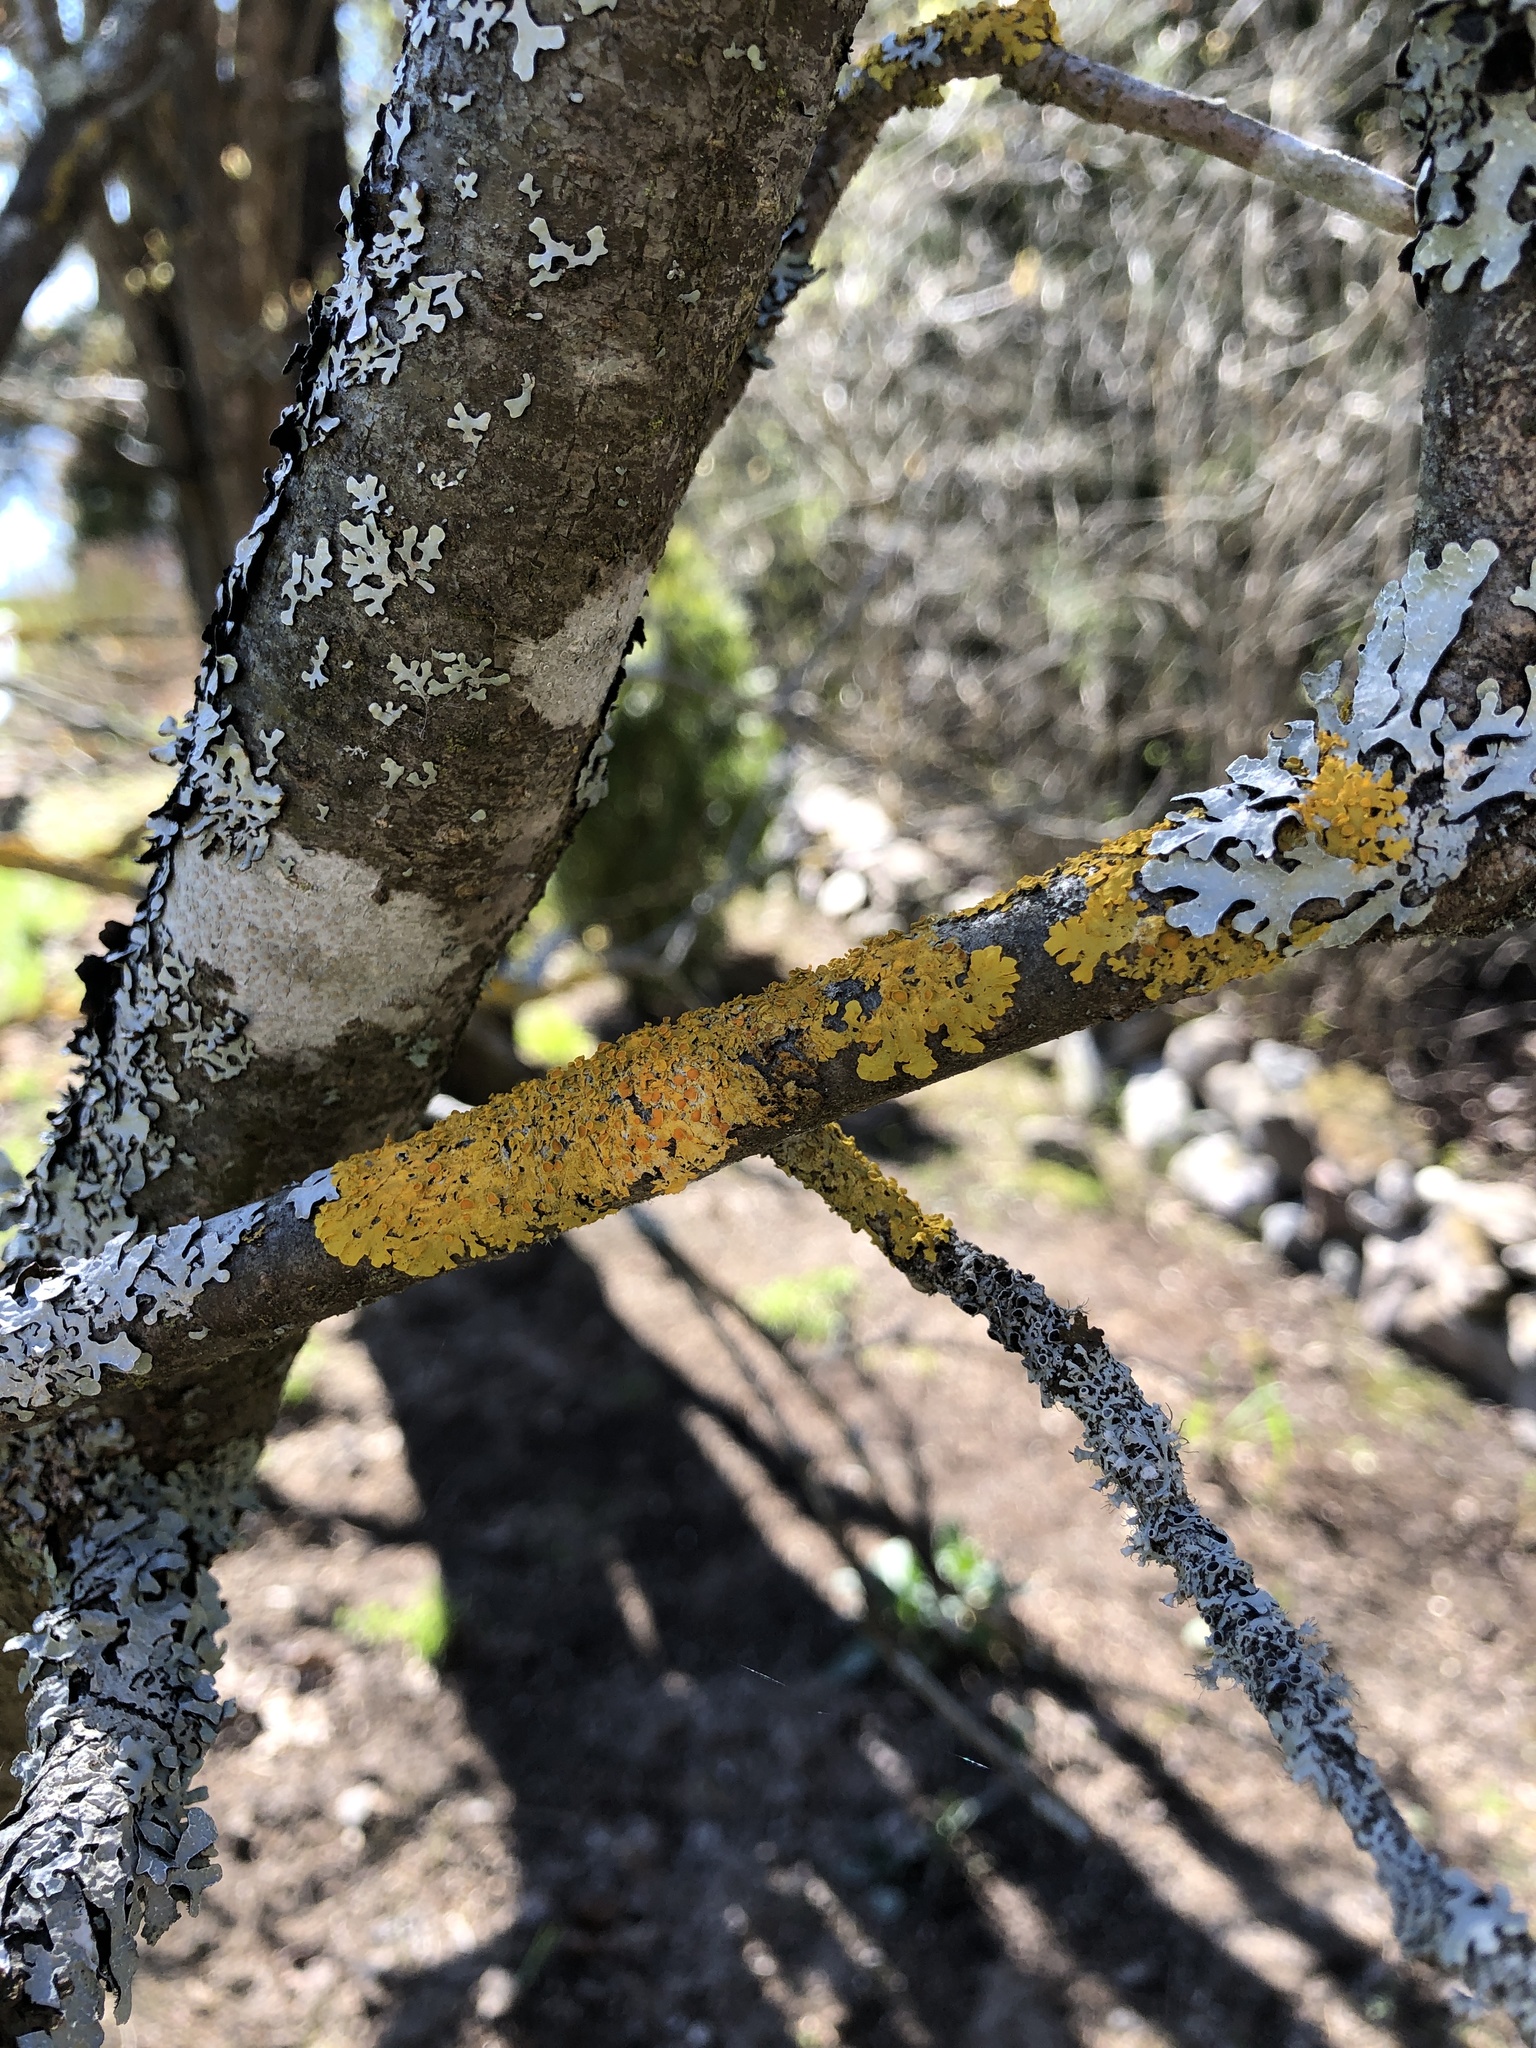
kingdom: Fungi
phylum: Ascomycota
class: Lecanoromycetes
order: Teloschistales
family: Teloschistaceae
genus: Xanthoria
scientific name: Xanthoria parietina
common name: Common orange lichen
